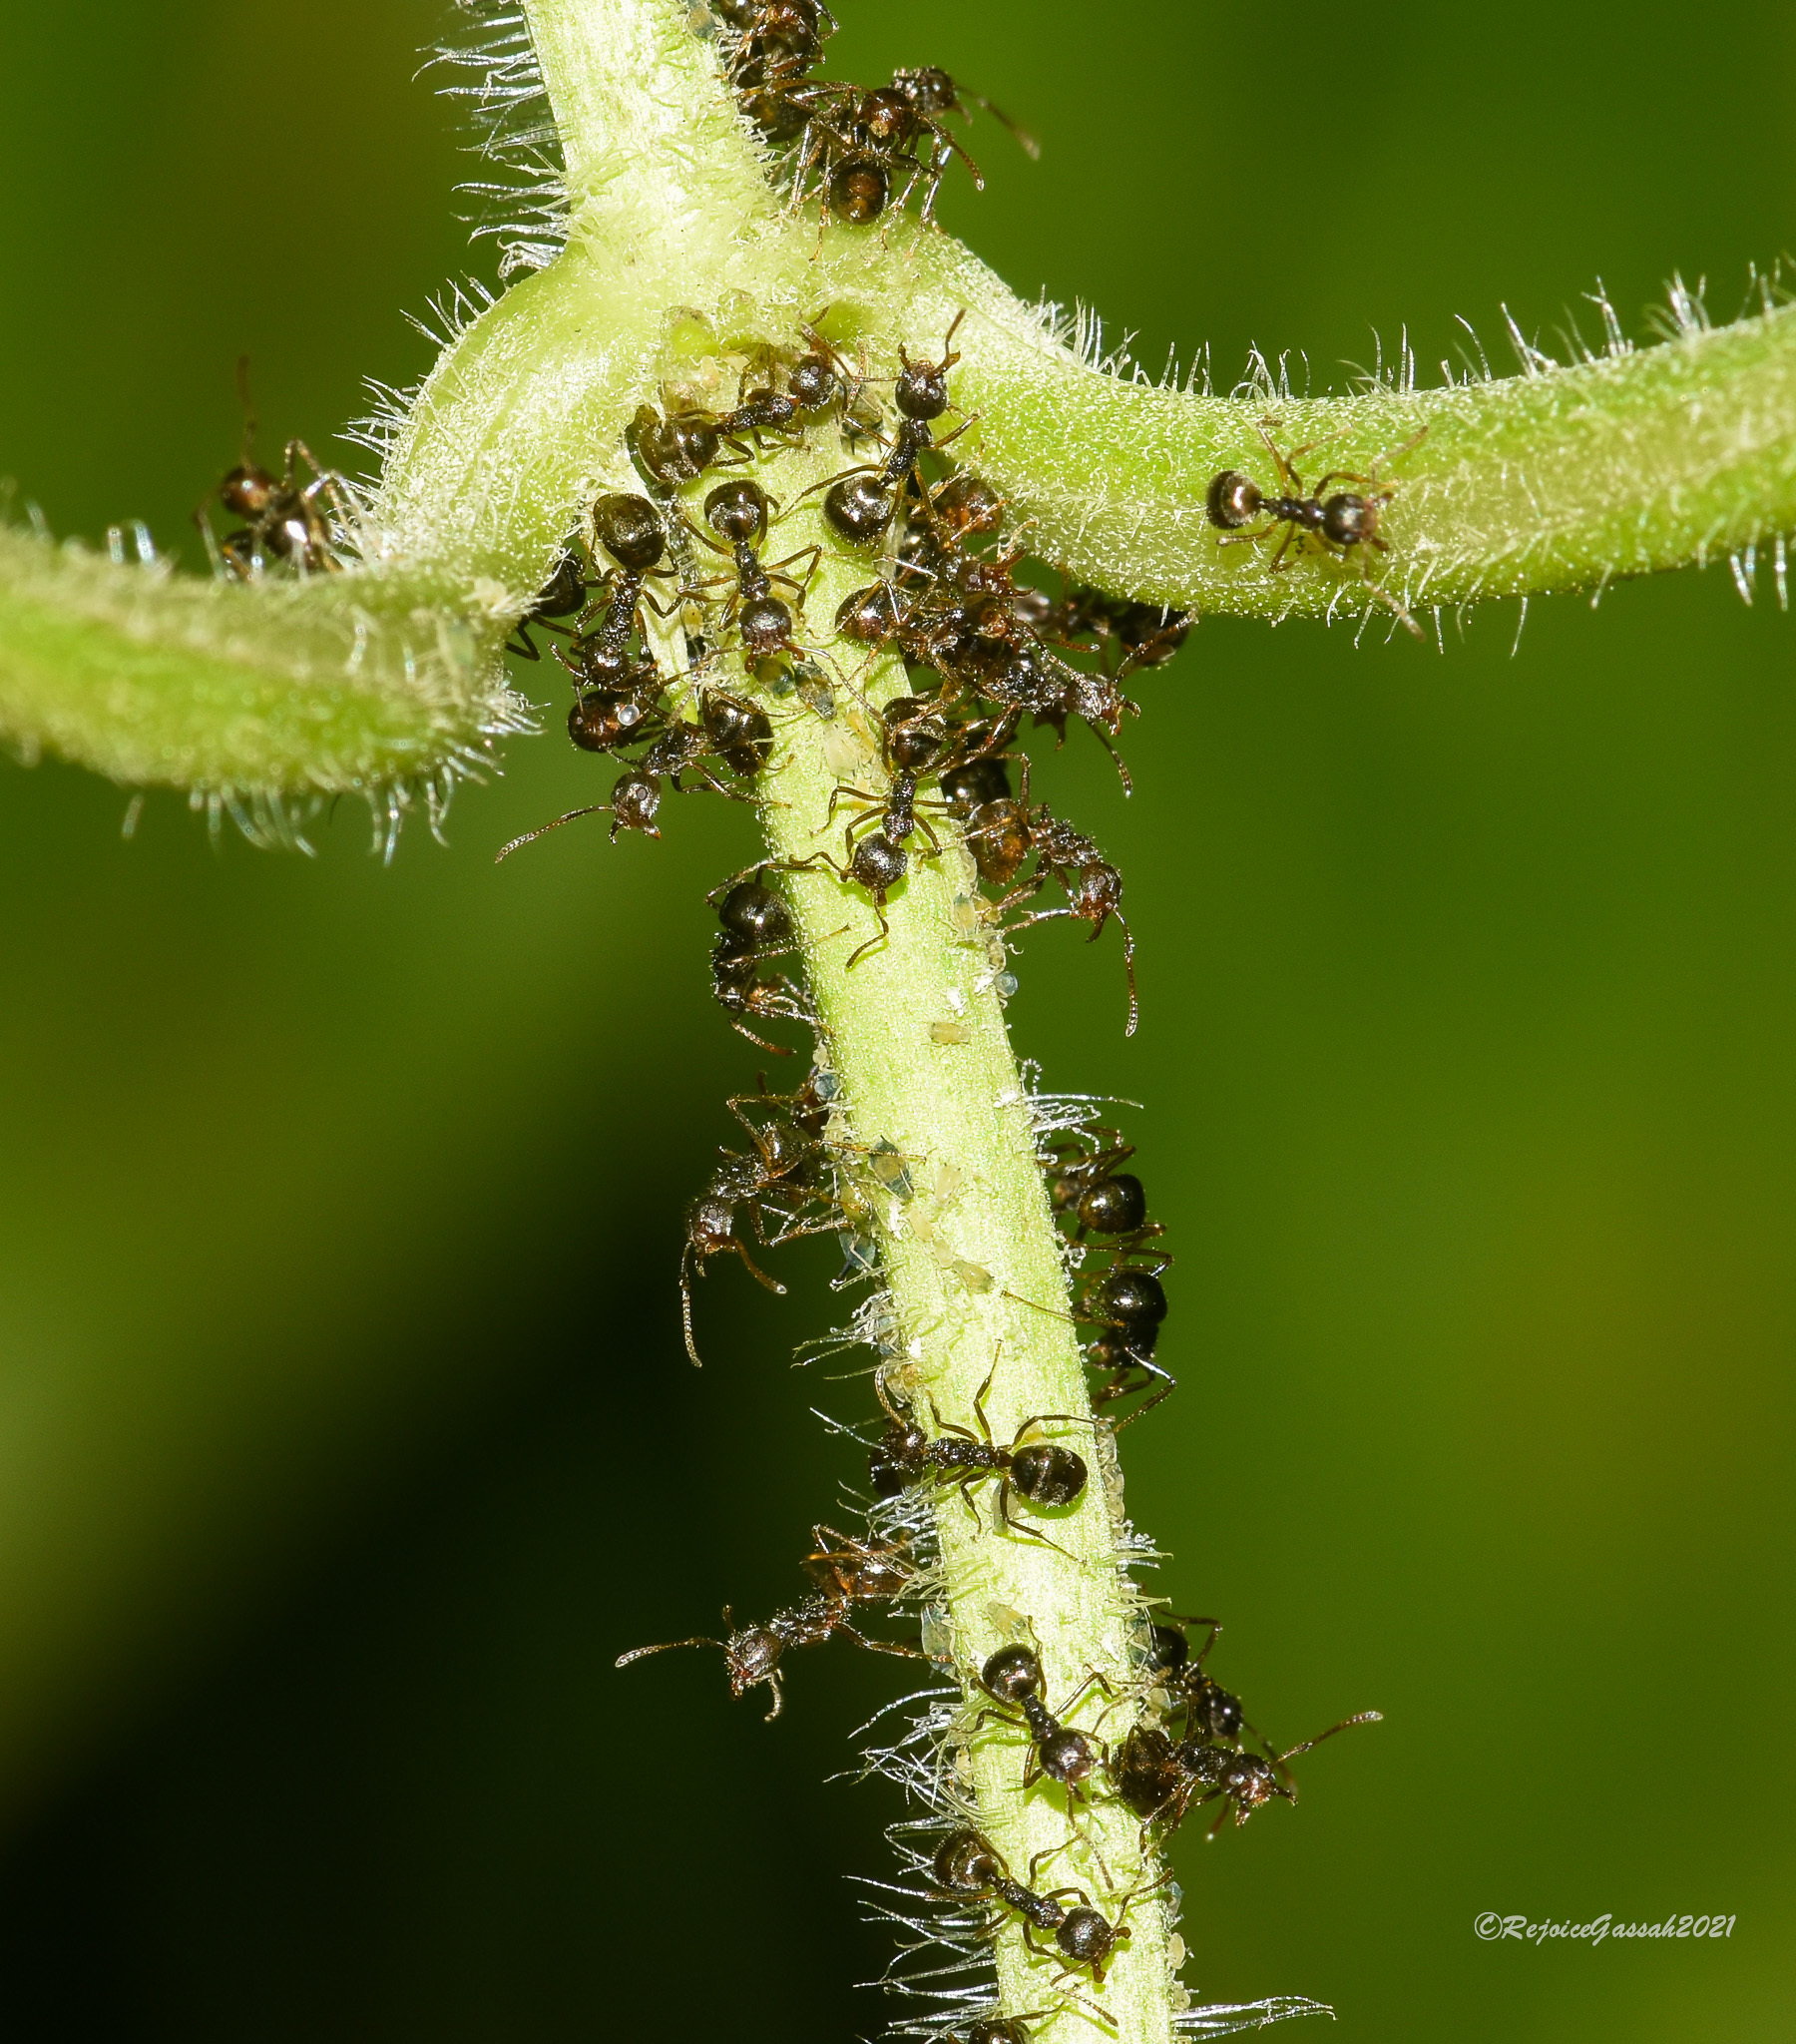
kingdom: Animalia
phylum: Arthropoda
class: Insecta
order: Hymenoptera
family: Formicidae
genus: Dolichoderus
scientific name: Dolichoderus thoracicus
